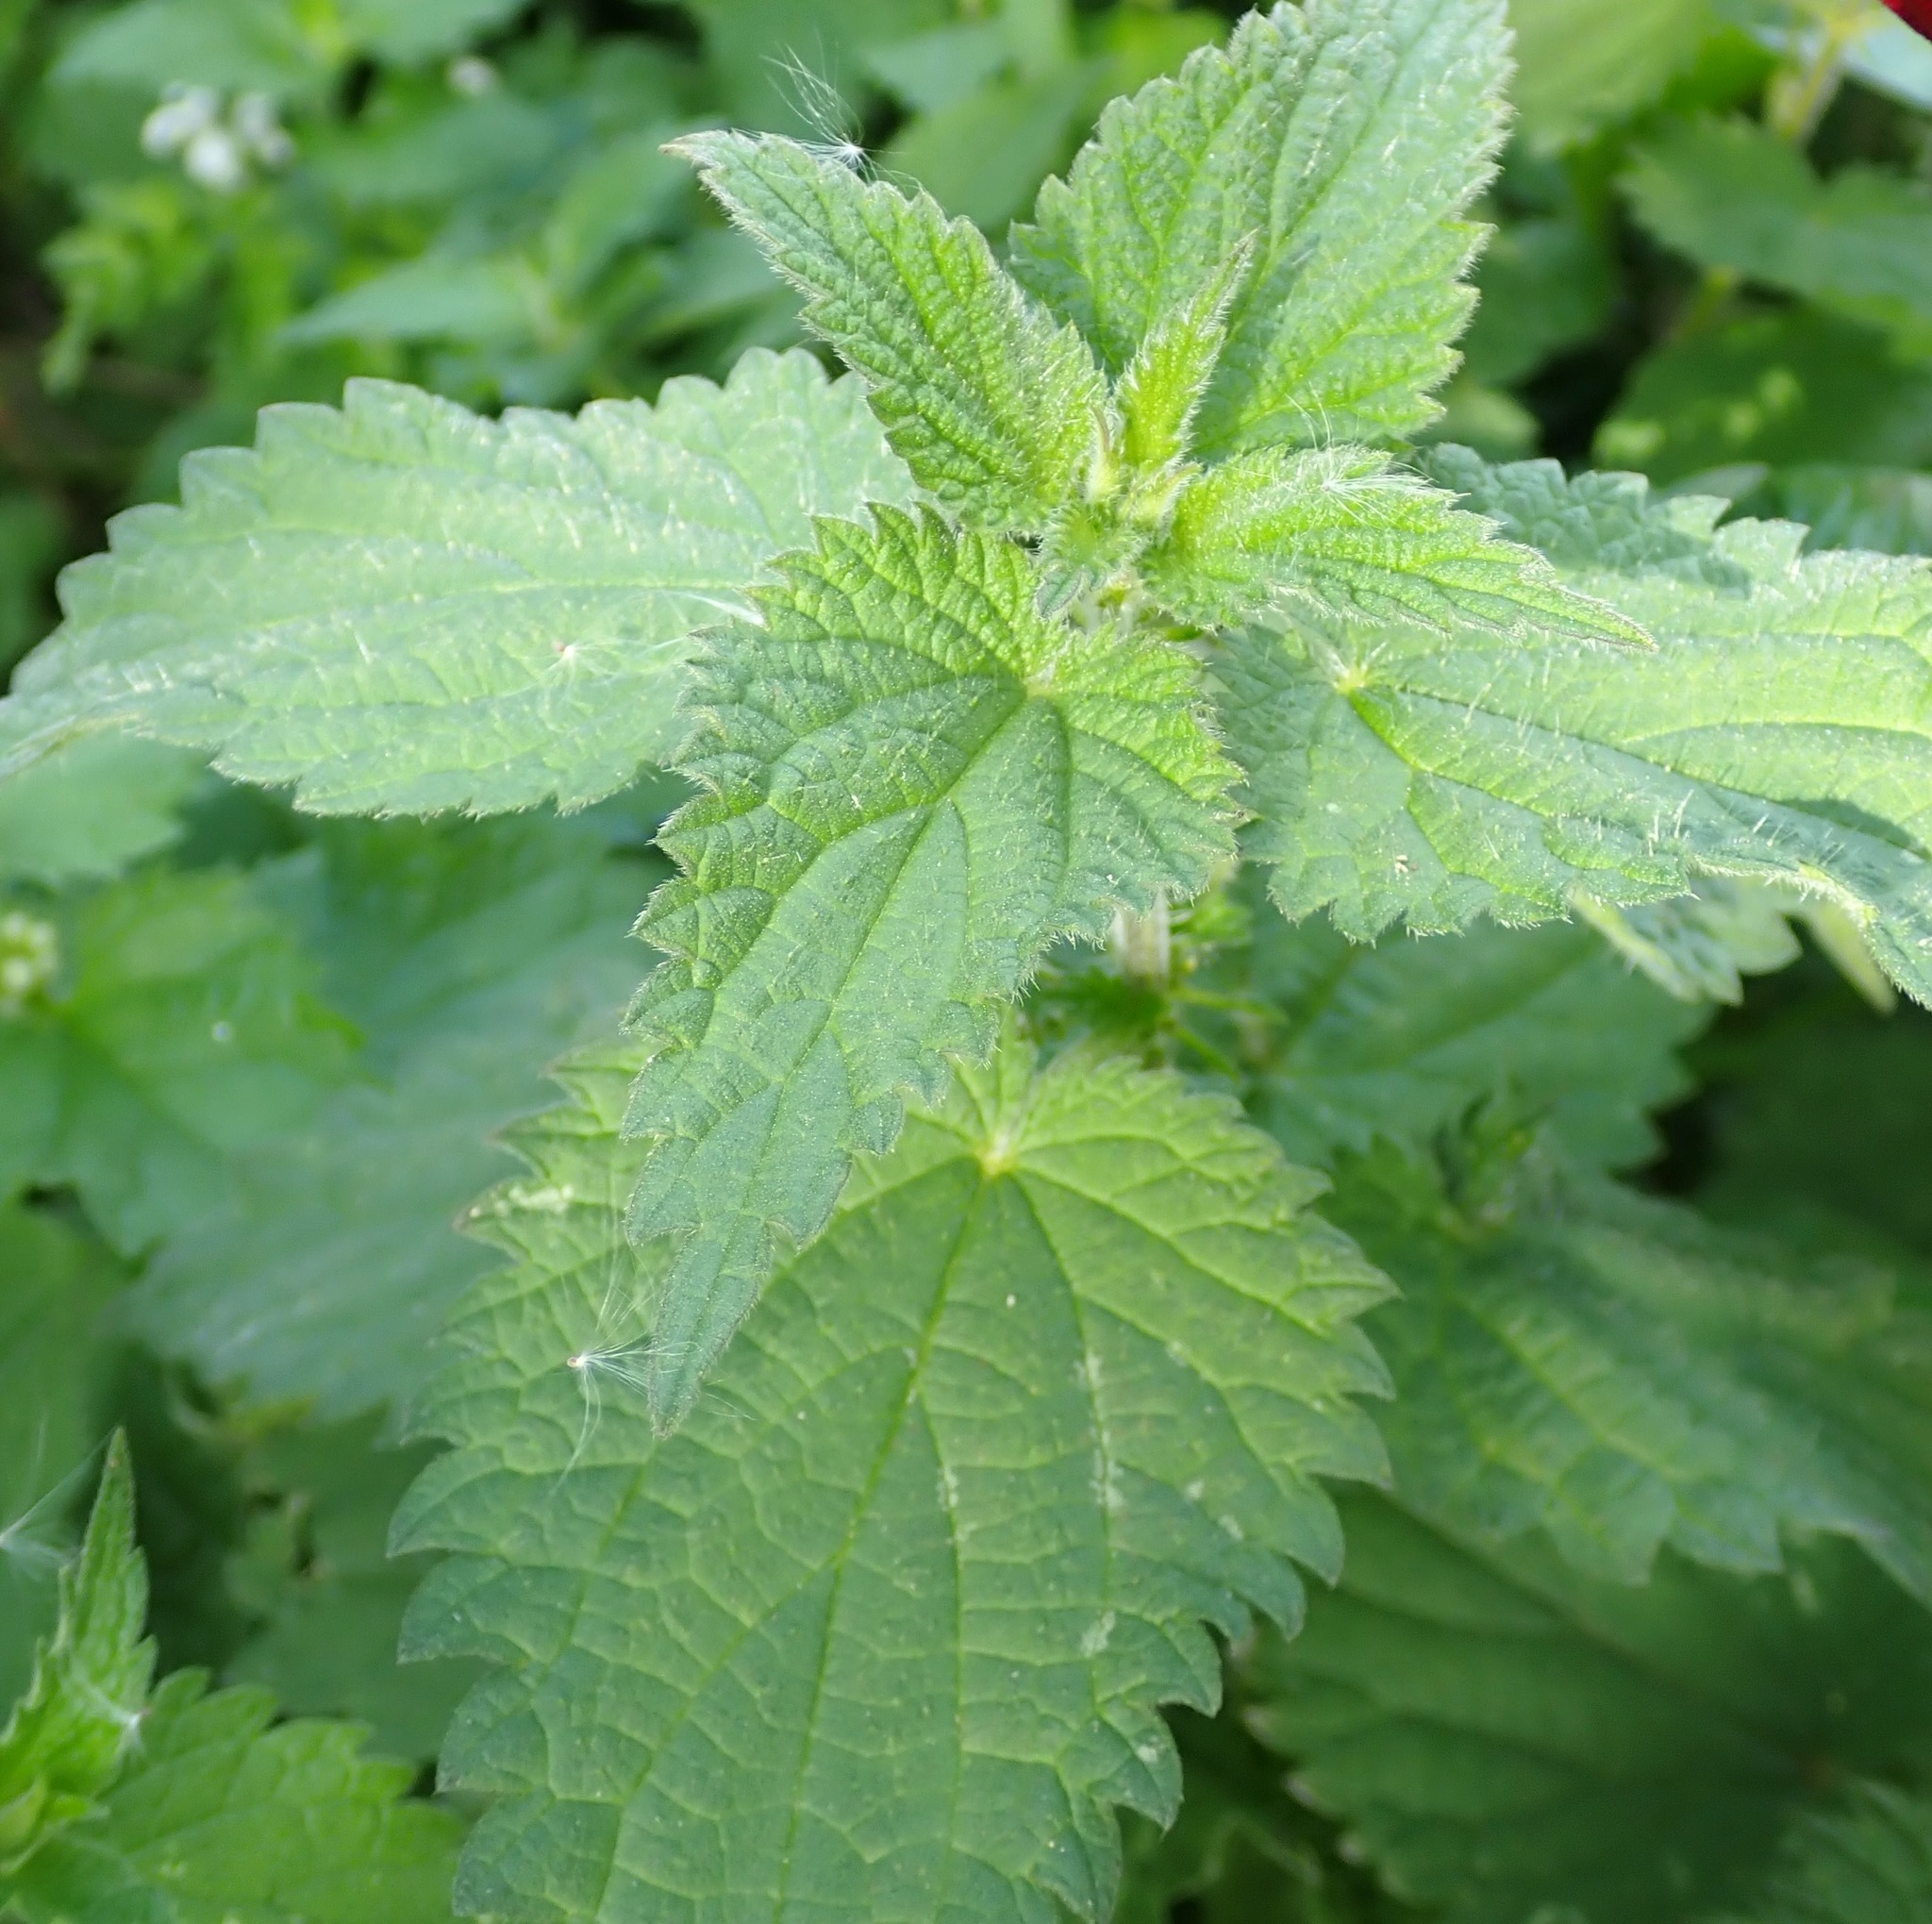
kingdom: Plantae
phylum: Tracheophyta
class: Magnoliopsida
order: Rosales
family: Urticaceae
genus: Urtica
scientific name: Urtica dioica
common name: Common nettle
